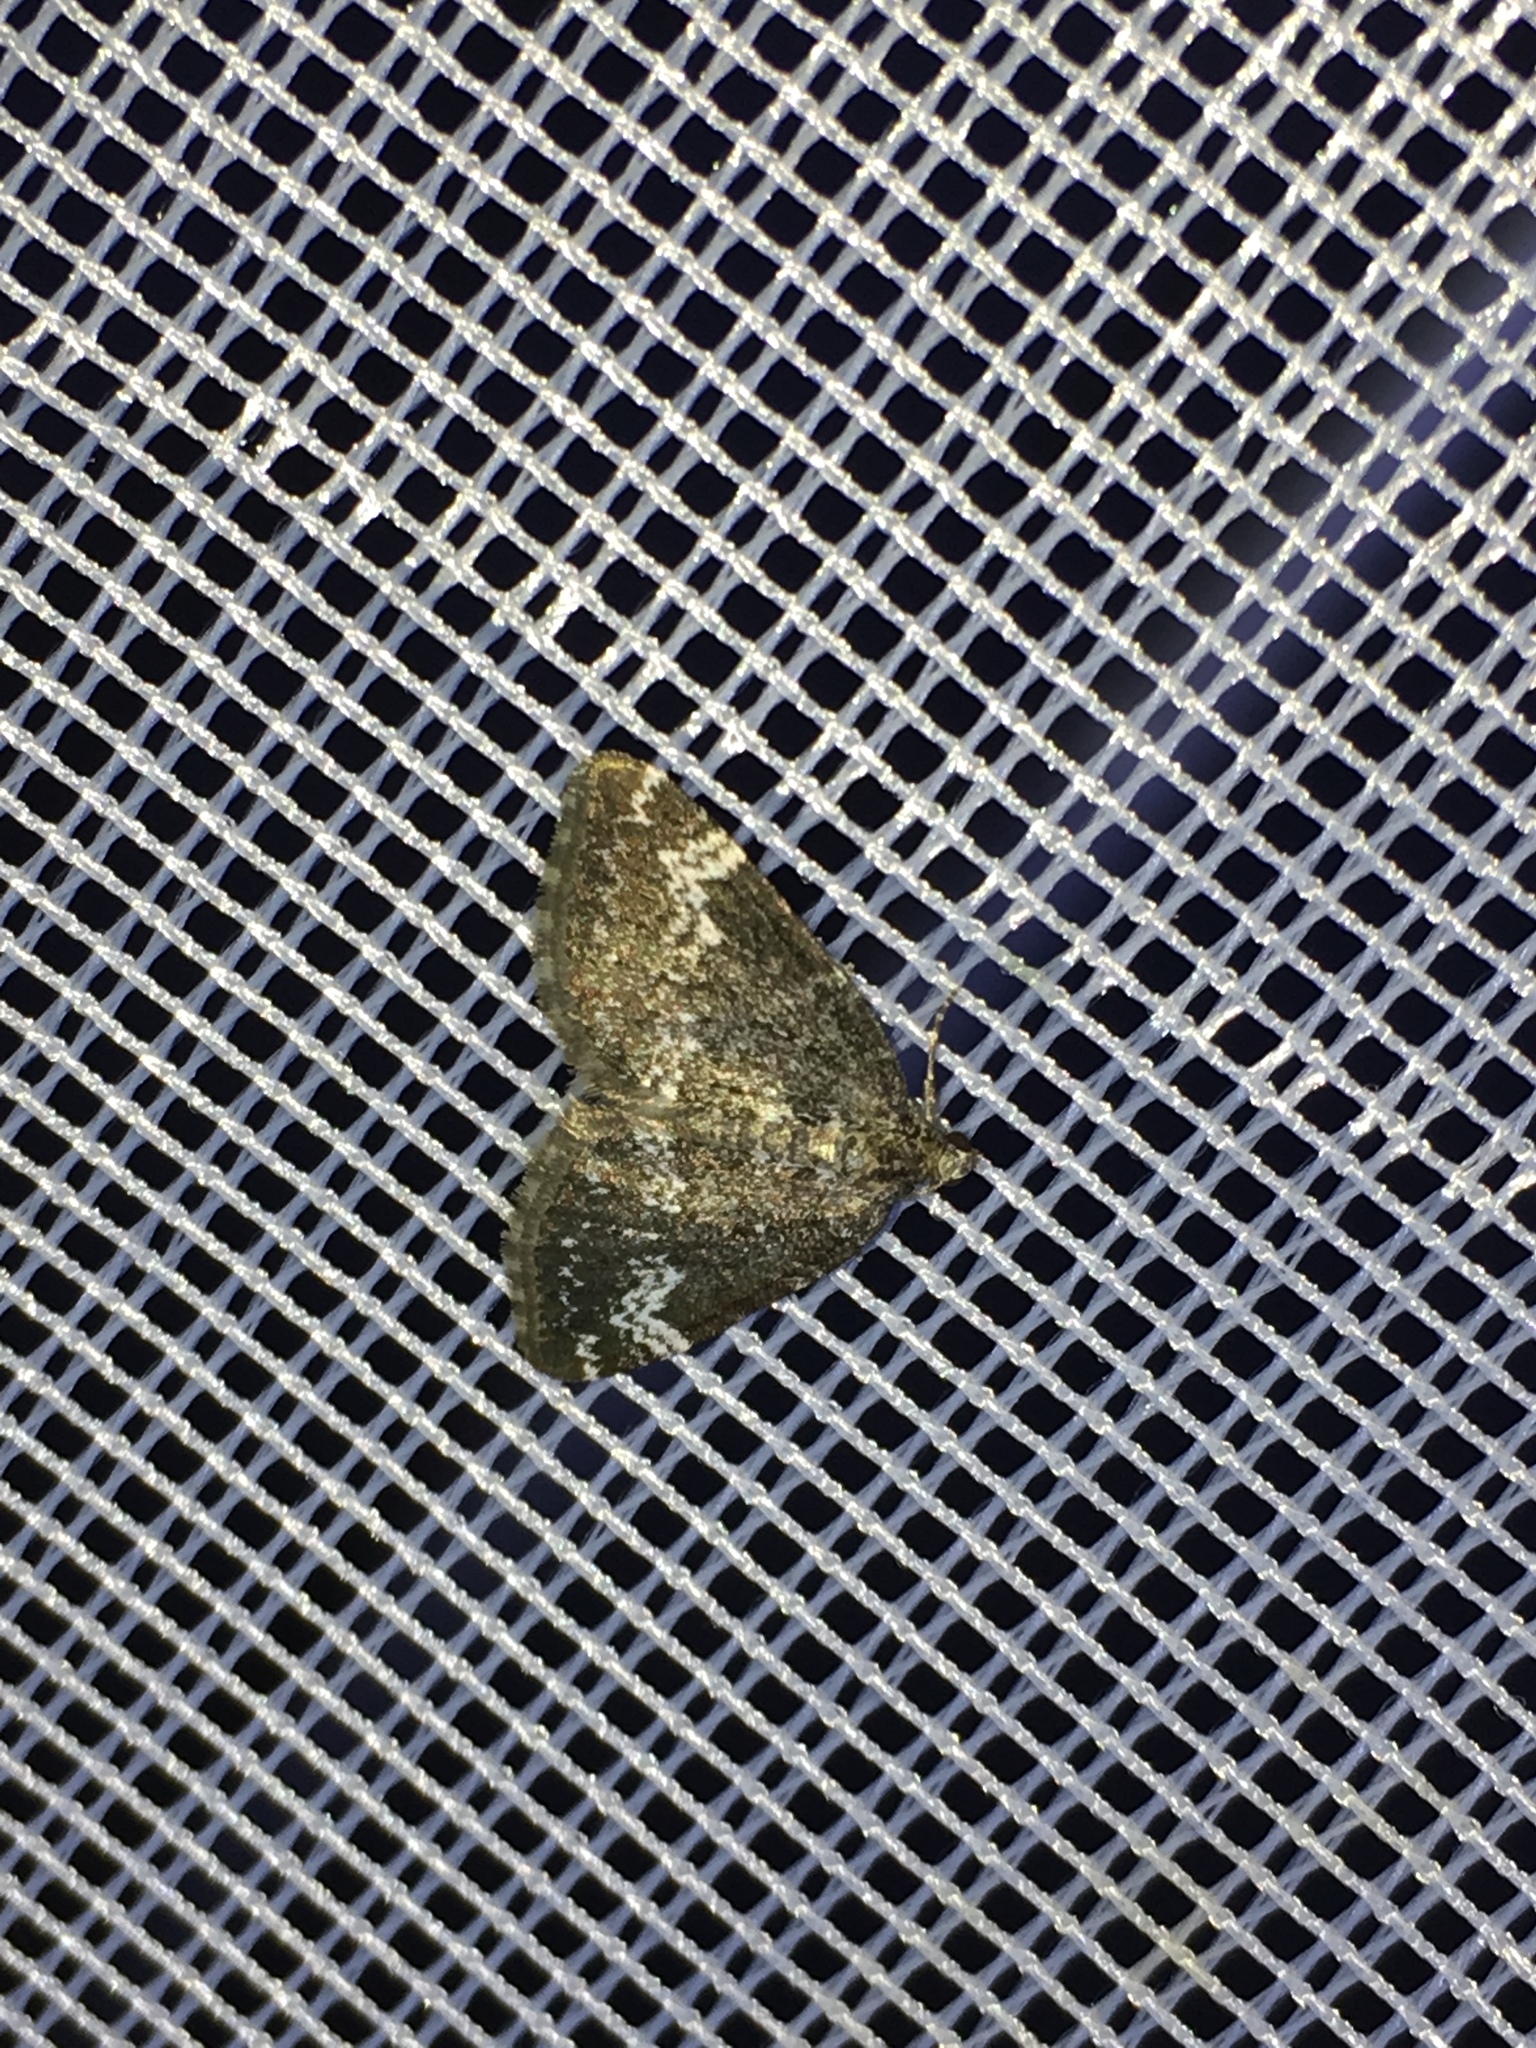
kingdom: Animalia
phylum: Arthropoda
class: Insecta
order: Lepidoptera
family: Geometridae
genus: Perizoma
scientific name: Perizoma alchemillata
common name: Small rivulet
